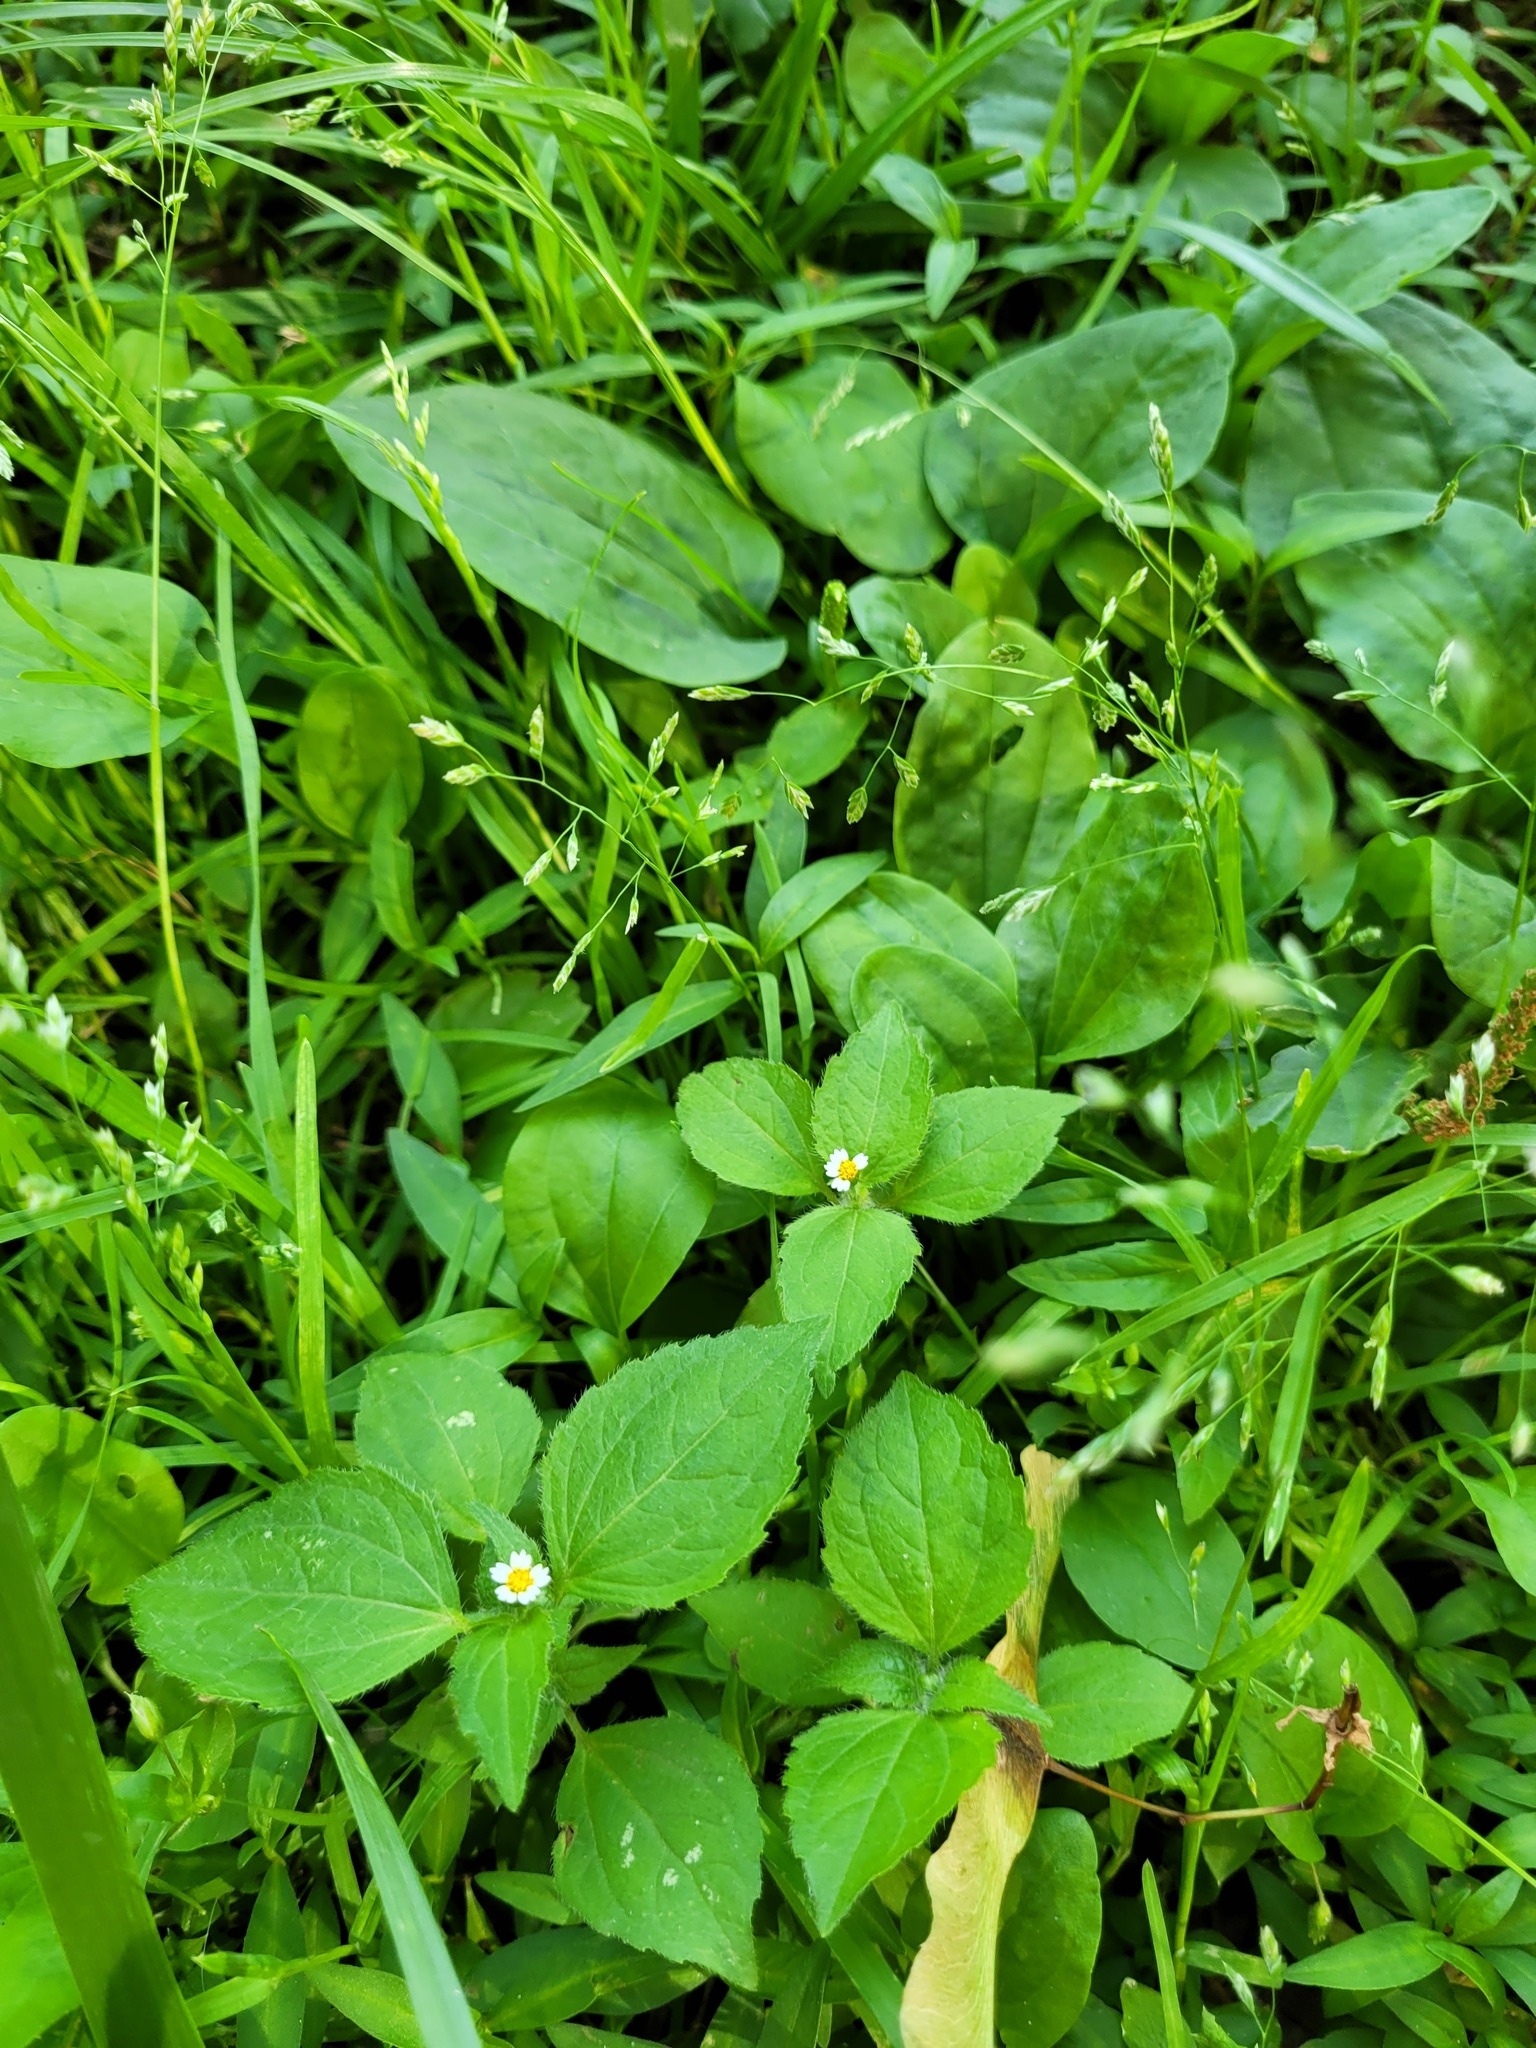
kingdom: Plantae
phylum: Tracheophyta
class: Magnoliopsida
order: Asterales
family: Asteraceae
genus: Galinsoga
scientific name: Galinsoga quadriradiata
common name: Shaggy soldier
